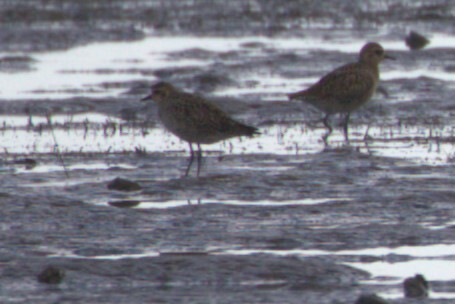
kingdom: Animalia
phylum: Chordata
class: Aves
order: Charadriiformes
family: Charadriidae
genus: Pluvialis
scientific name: Pluvialis fulva
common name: Pacific golden plover
